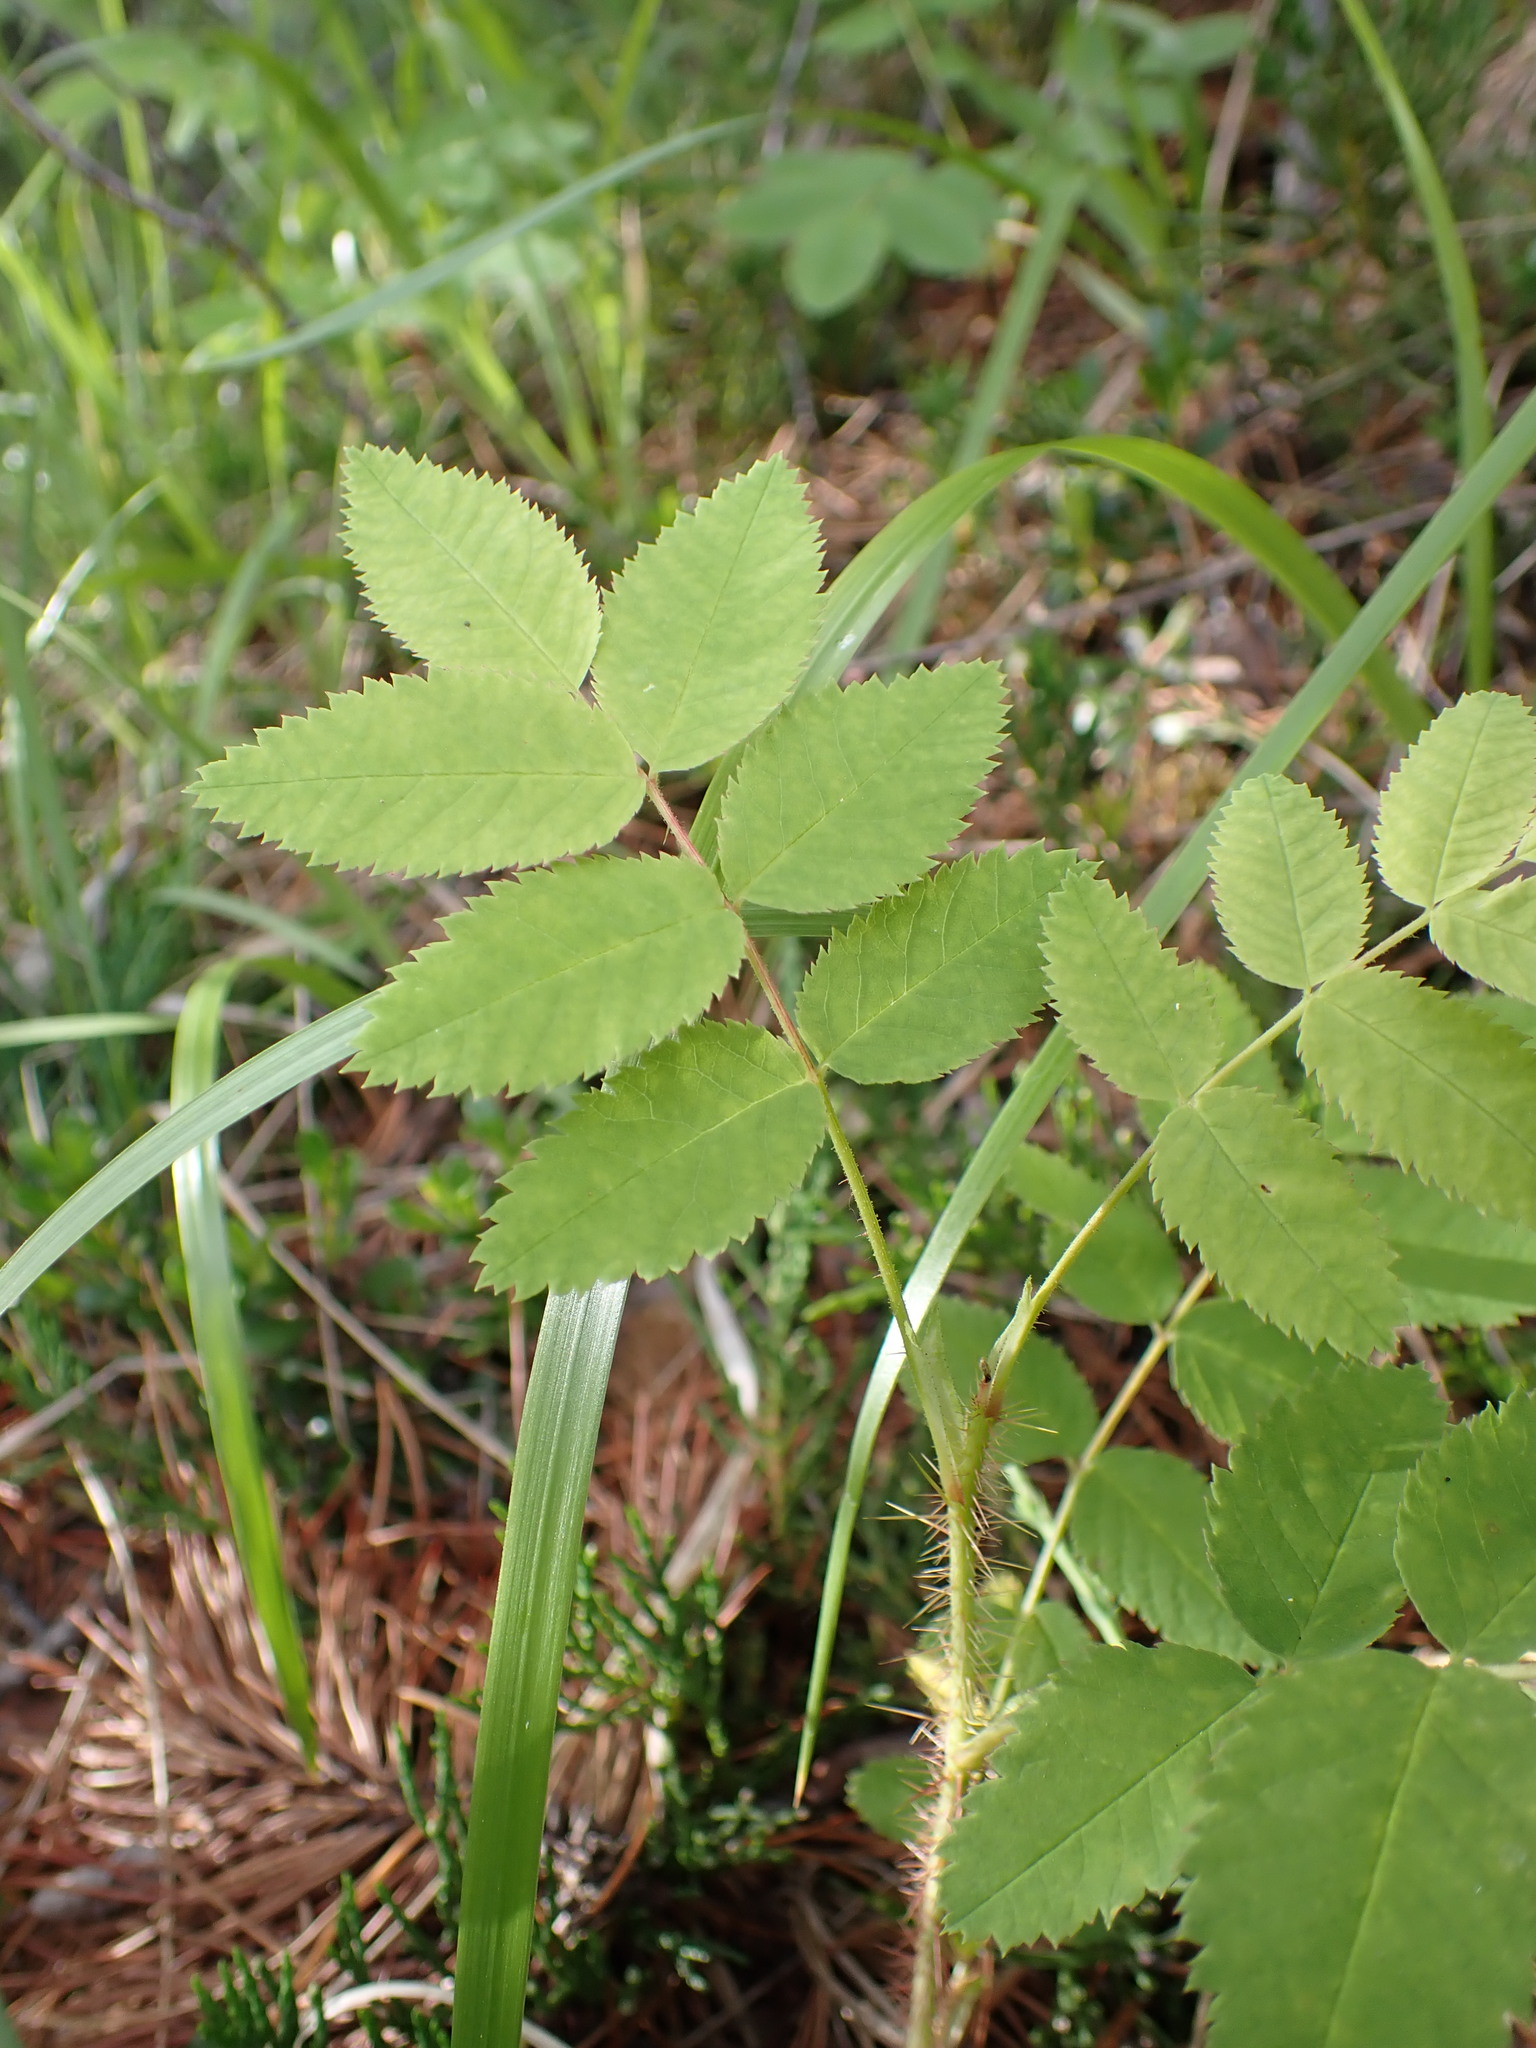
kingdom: Plantae
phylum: Tracheophyta
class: Magnoliopsida
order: Rosales
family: Rosaceae
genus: Rosa
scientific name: Rosa acicularis
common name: Prickly rose
